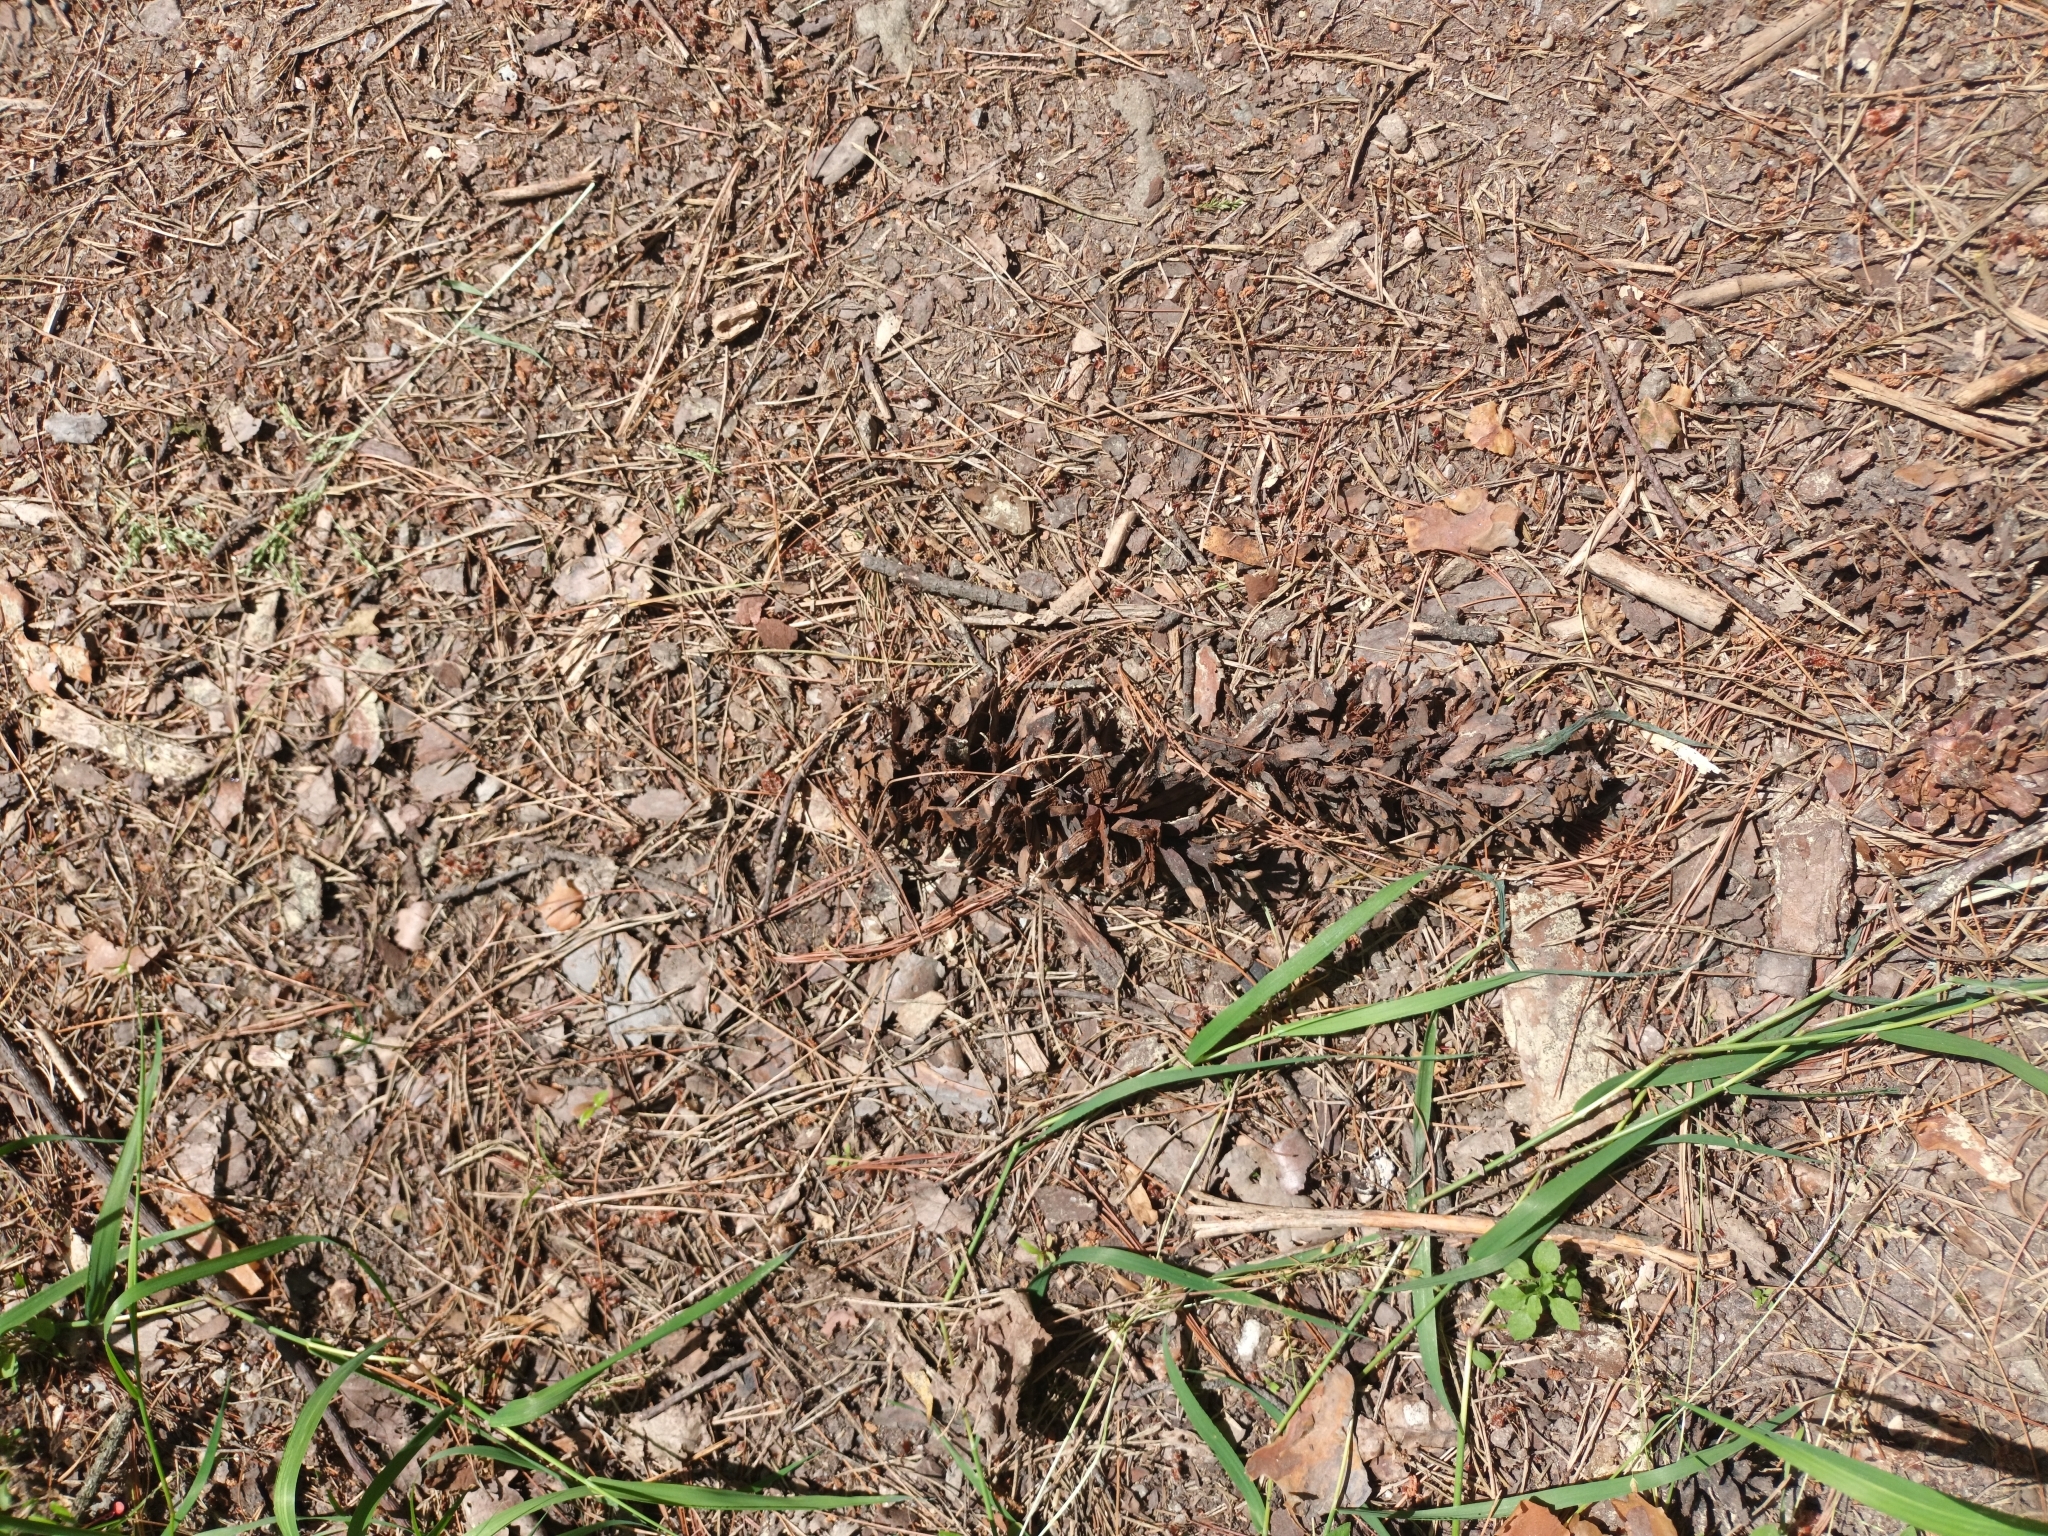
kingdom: Plantae
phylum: Tracheophyta
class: Pinopsida
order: Pinales
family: Pinaceae
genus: Pinus
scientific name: Pinus strobus
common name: Weymouth pine
